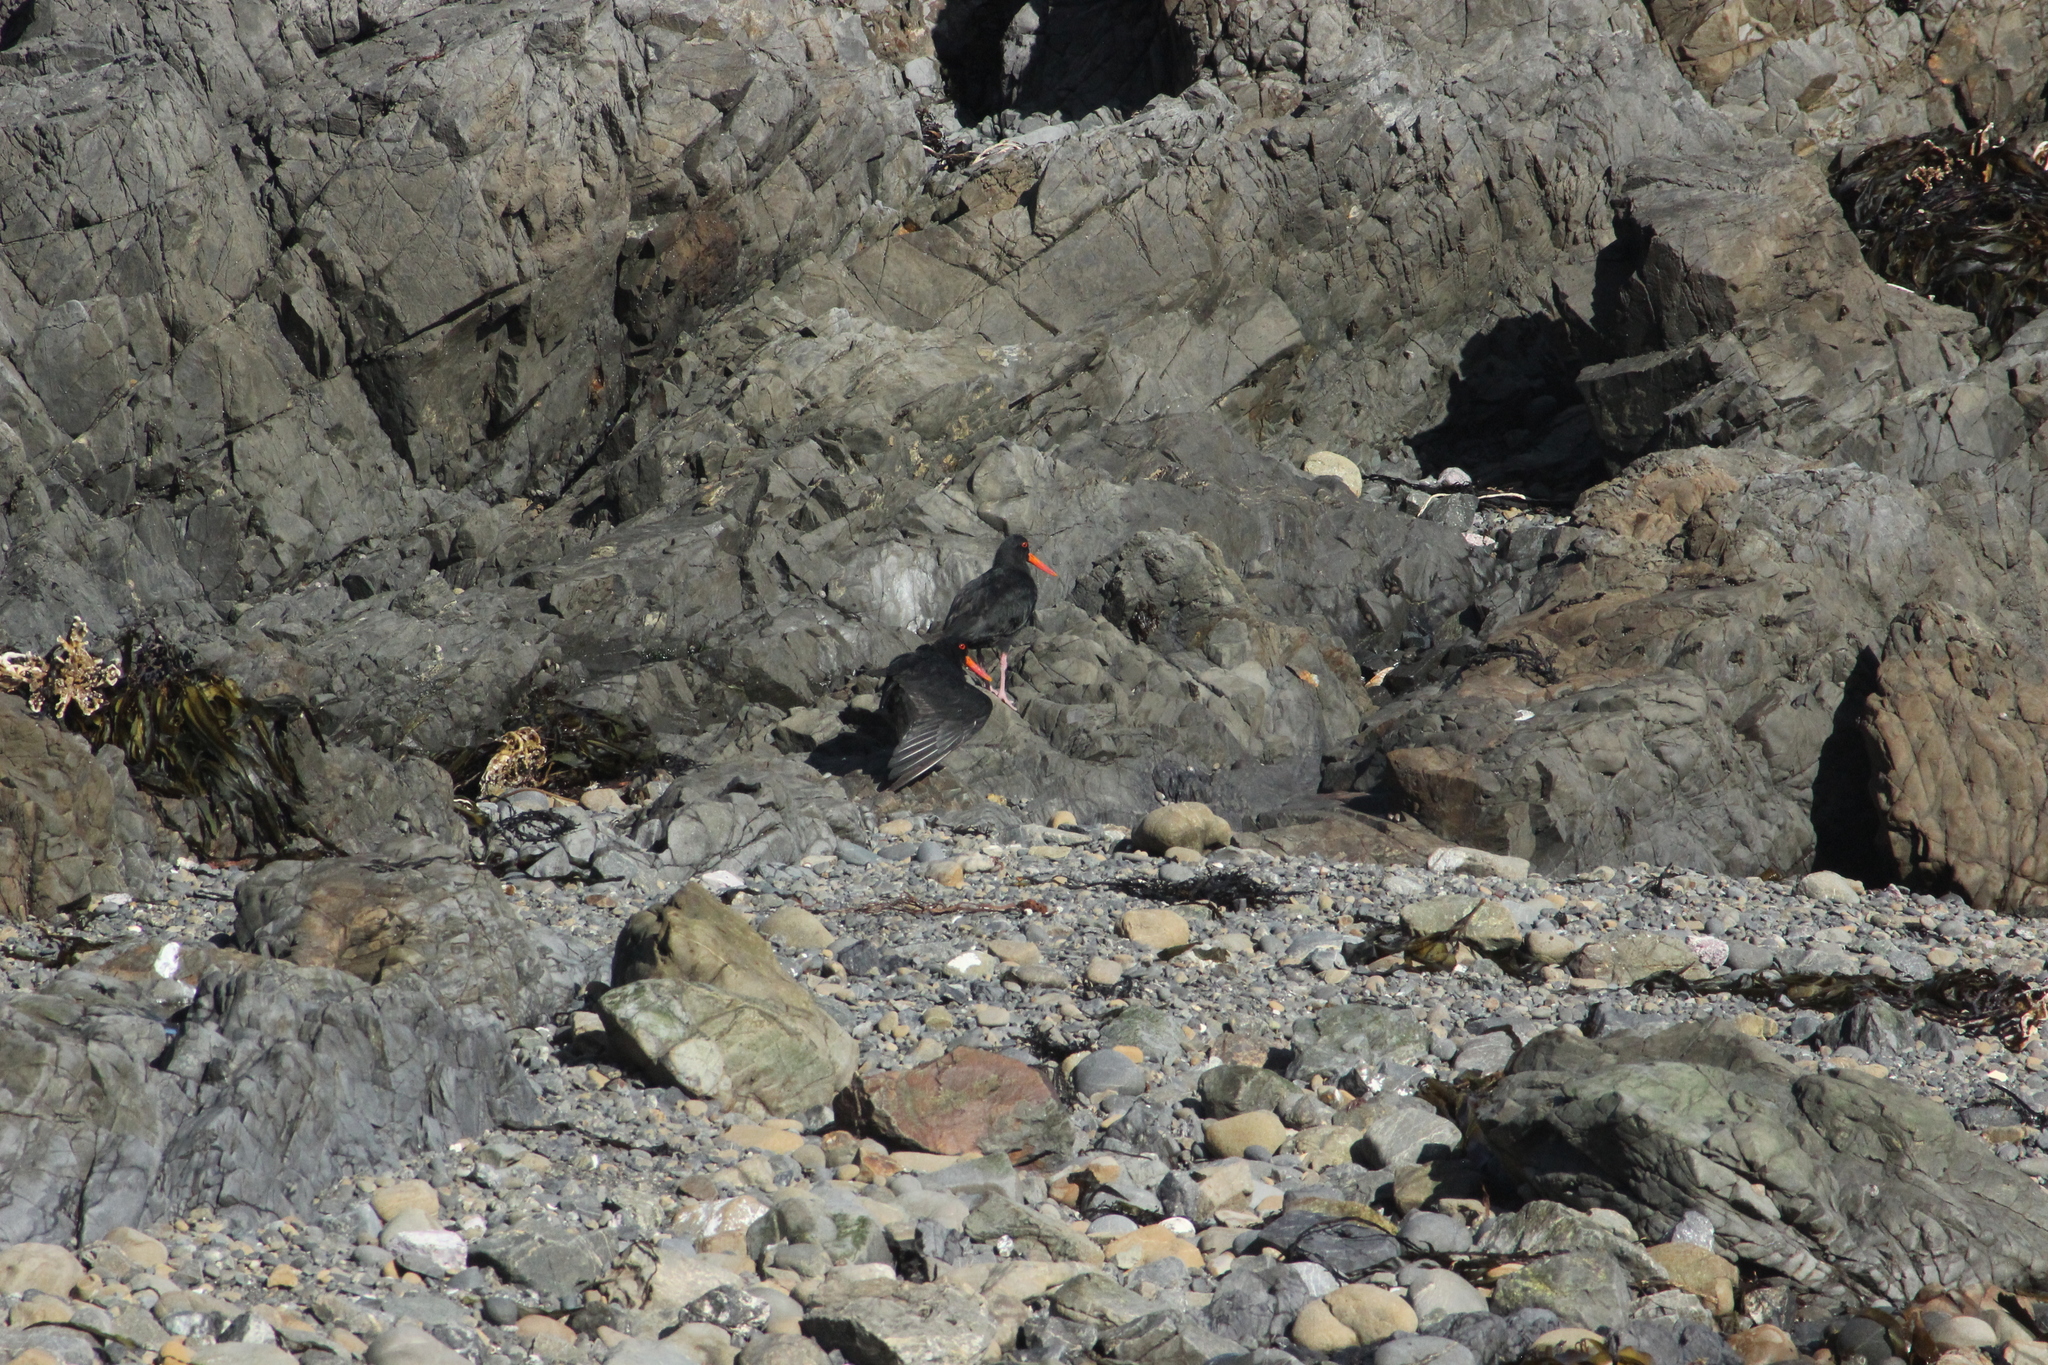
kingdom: Animalia
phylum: Chordata
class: Aves
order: Charadriiformes
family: Haematopodidae
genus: Haematopus
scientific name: Haematopus unicolor
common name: Variable oystercatcher
